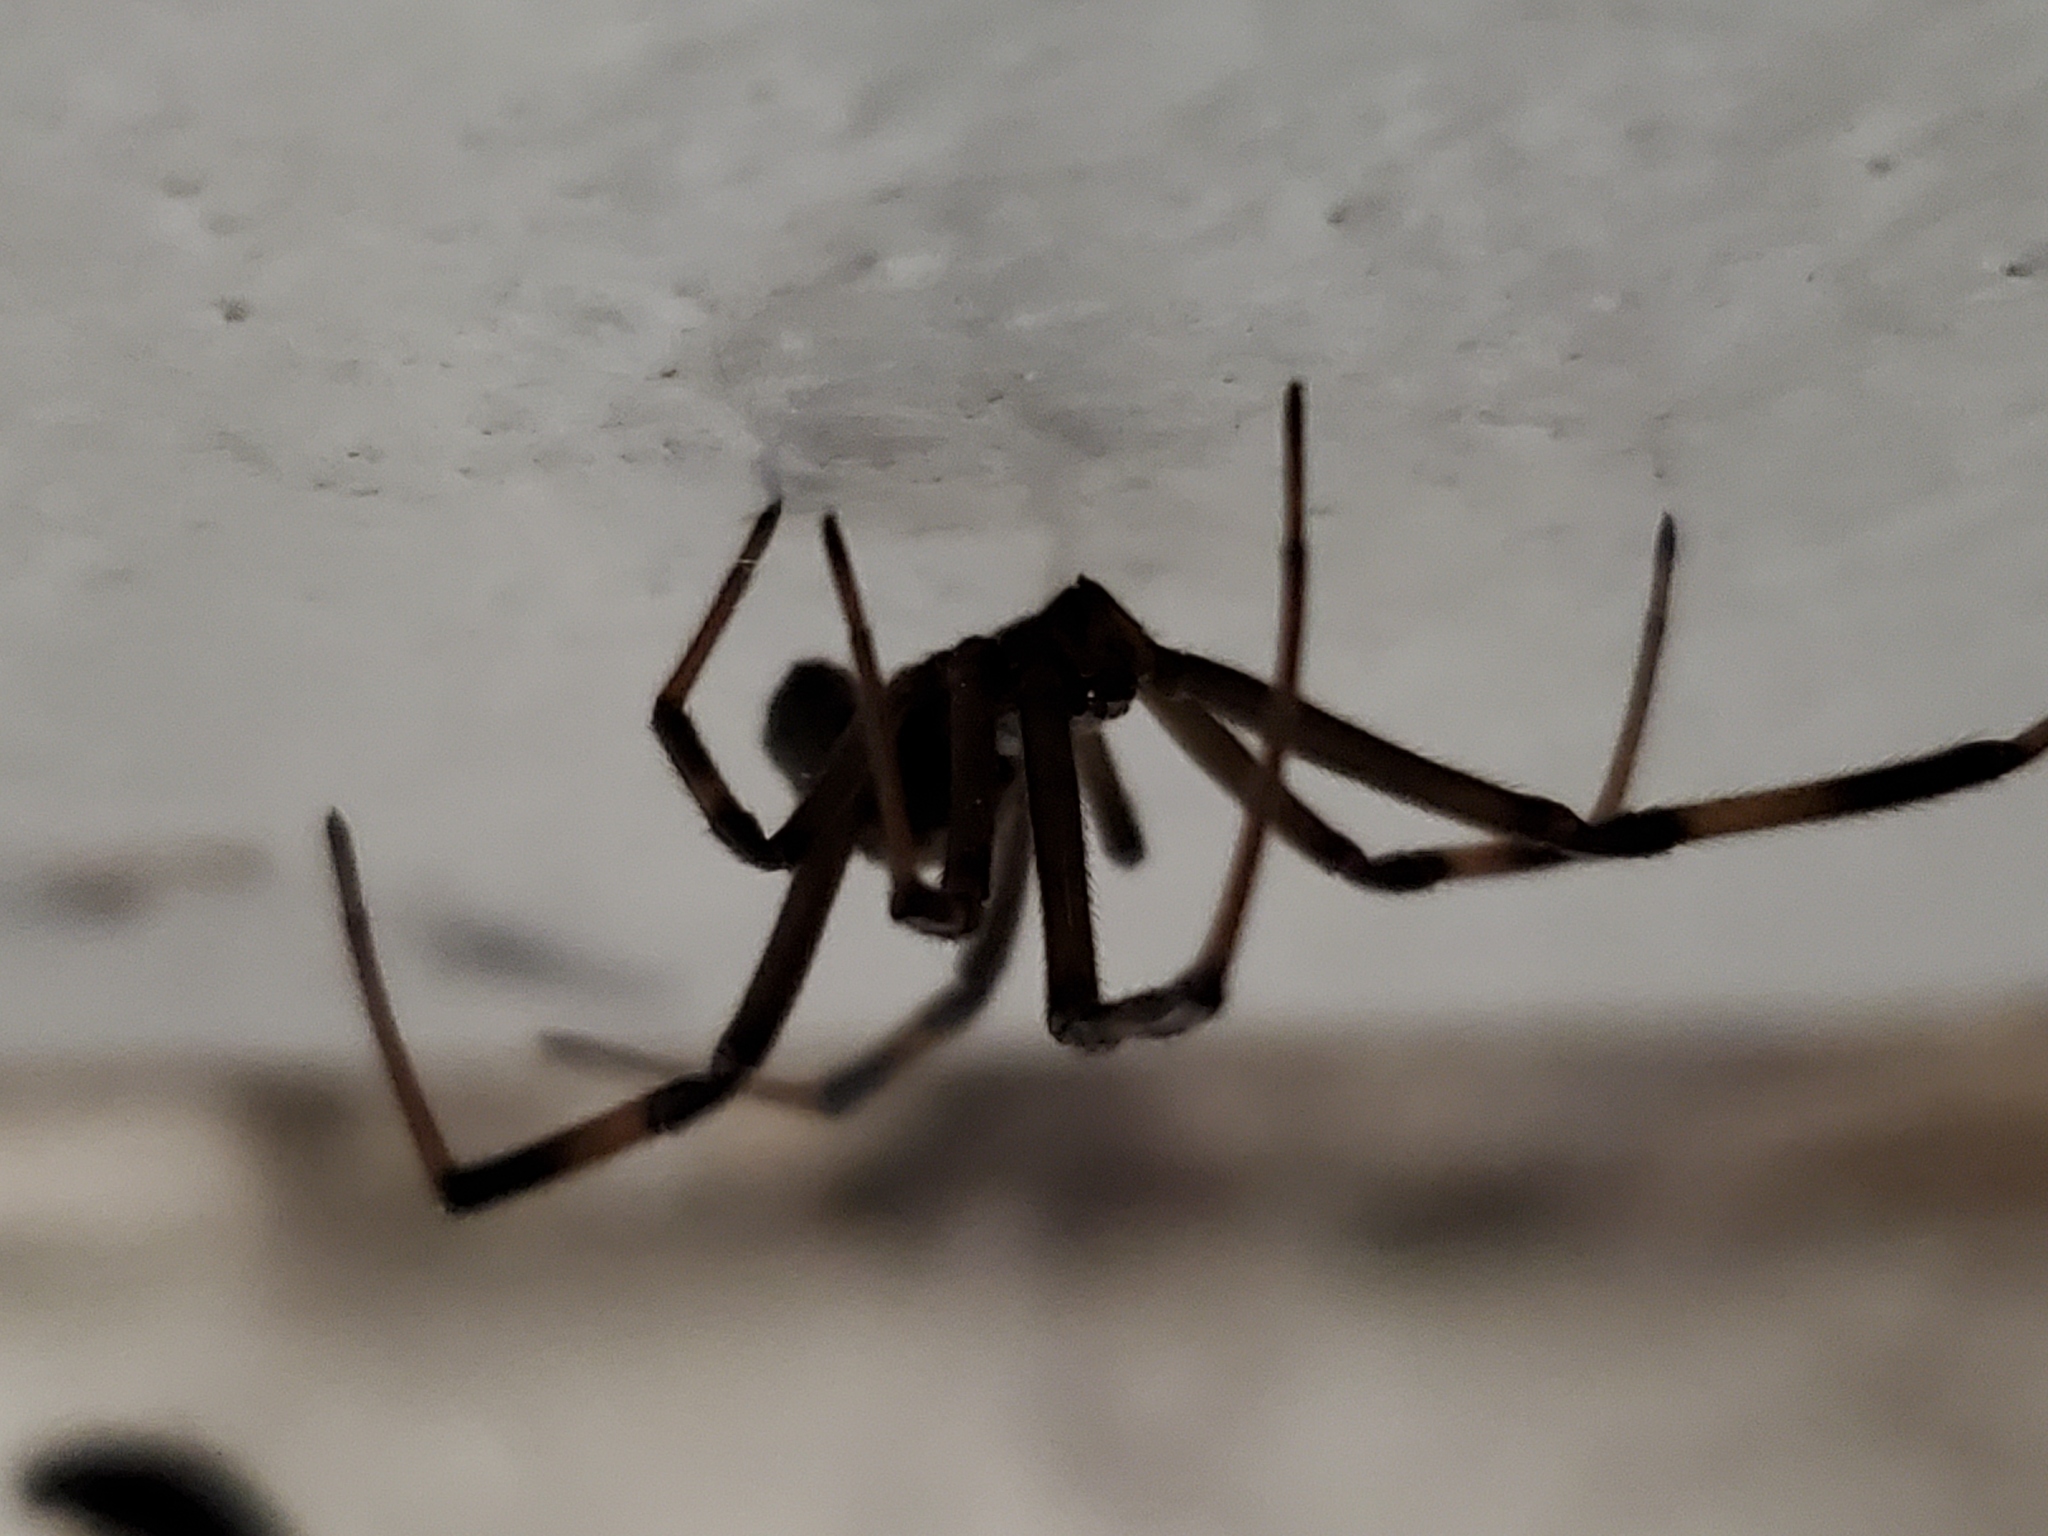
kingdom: Animalia
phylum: Arthropoda
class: Arachnida
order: Araneae
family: Theridiidae
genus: Latrodectus
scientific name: Latrodectus hesperus
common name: Western black widow
